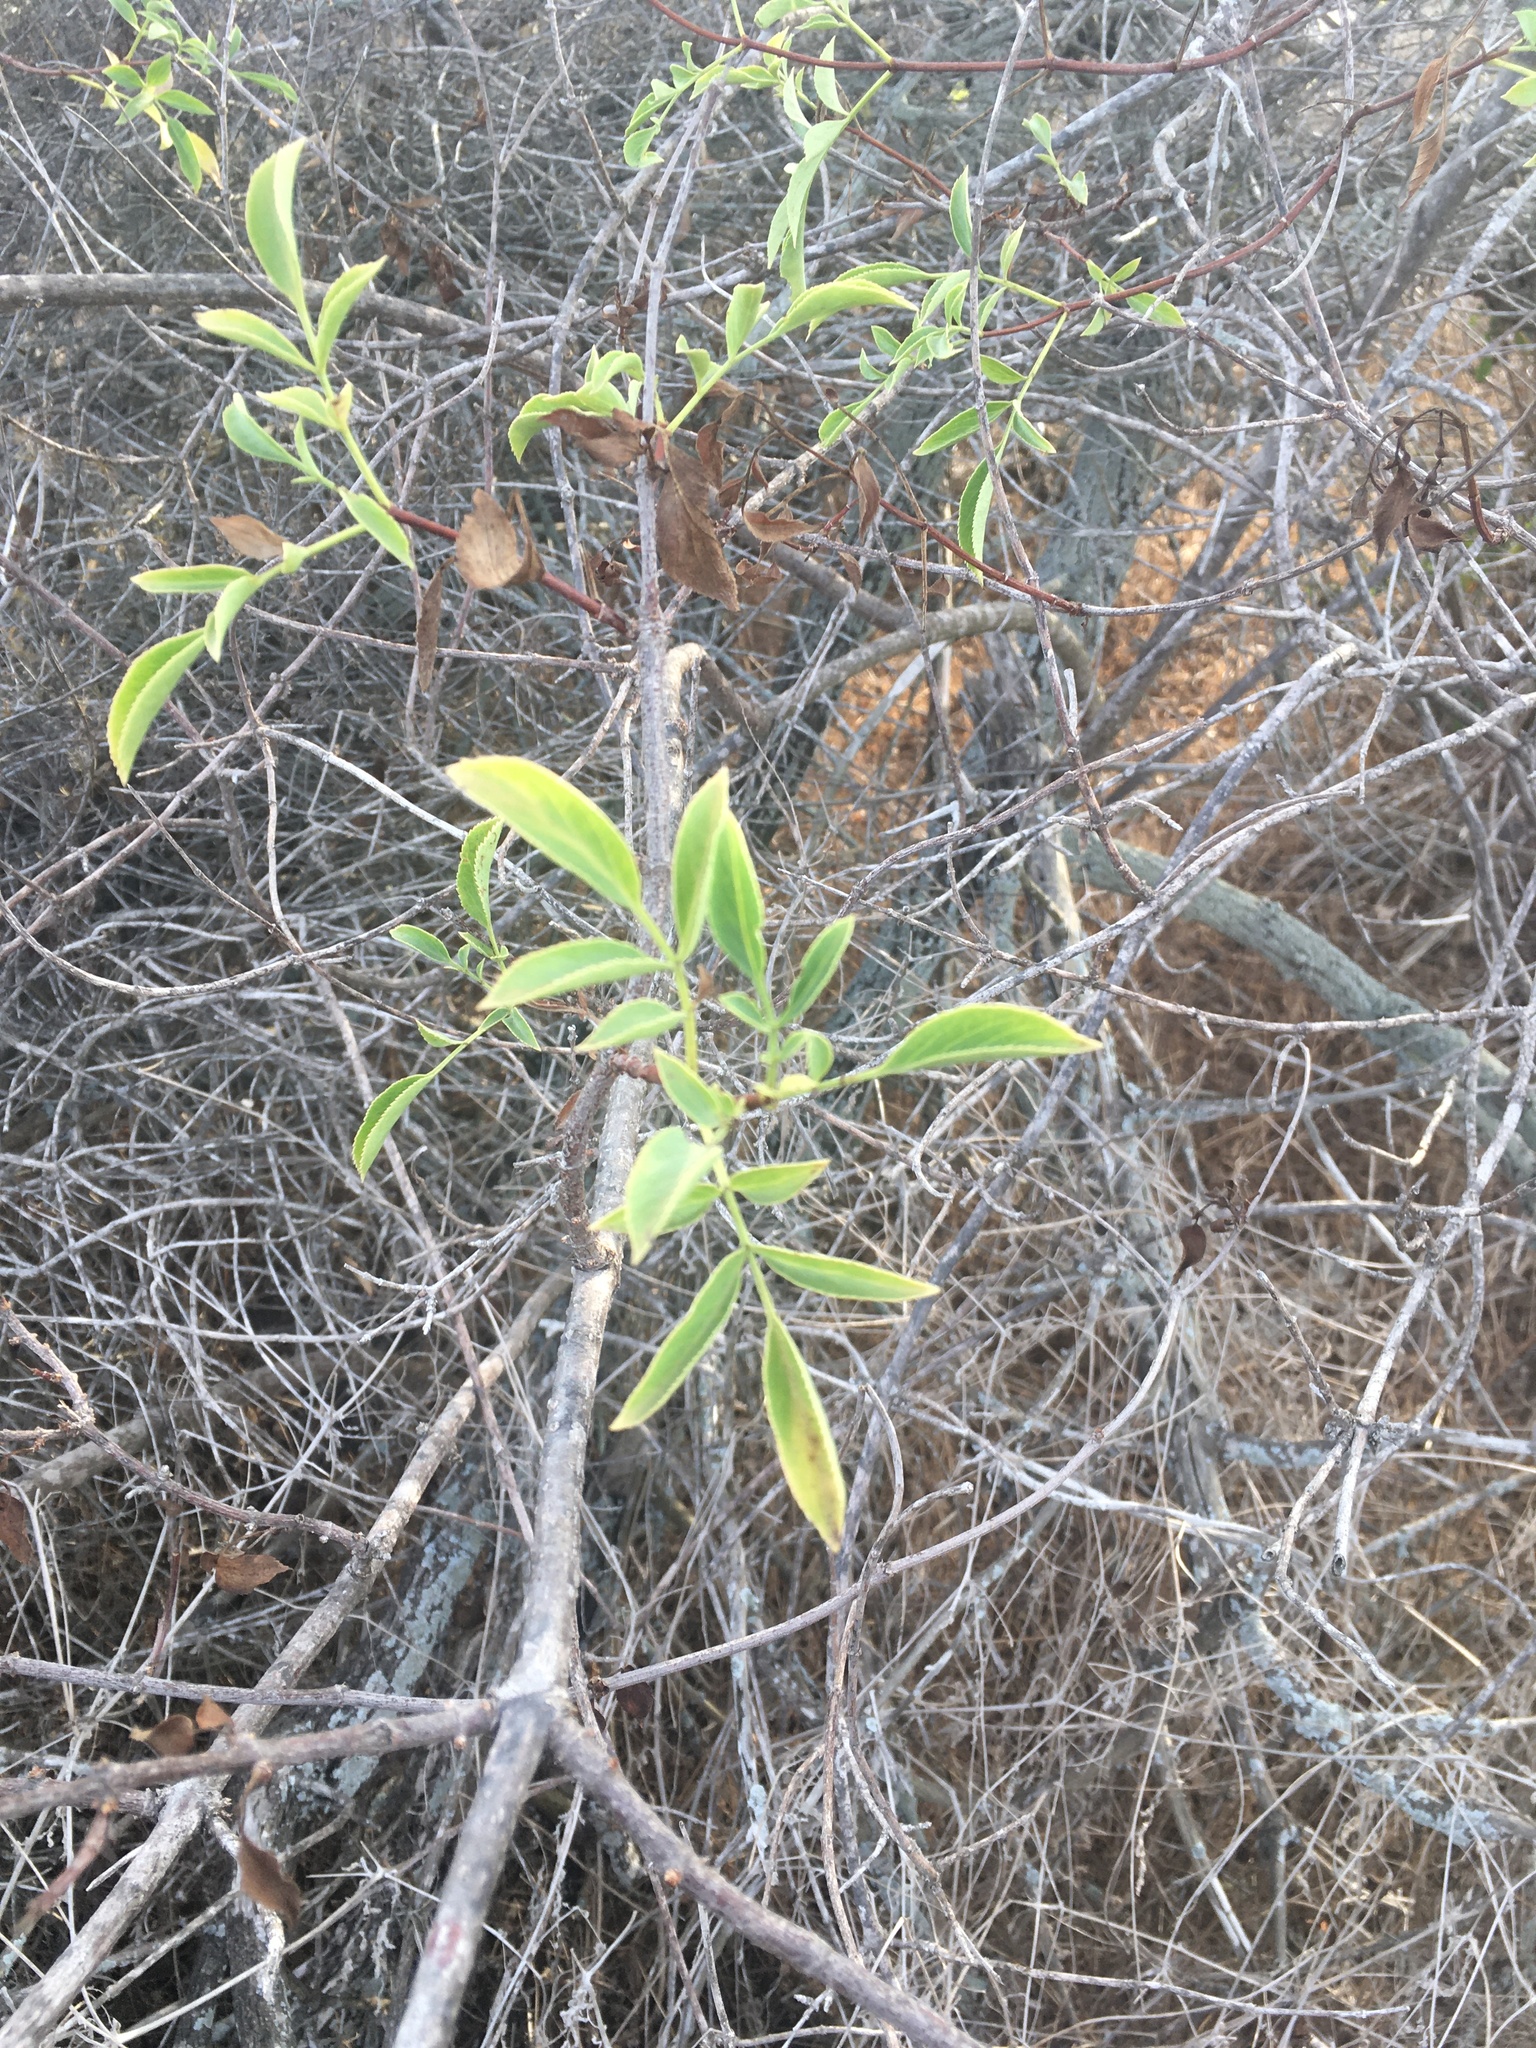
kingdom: Plantae
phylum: Tracheophyta
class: Magnoliopsida
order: Dipsacales
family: Viburnaceae
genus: Sambucus
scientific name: Sambucus cerulea
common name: Blue elder
